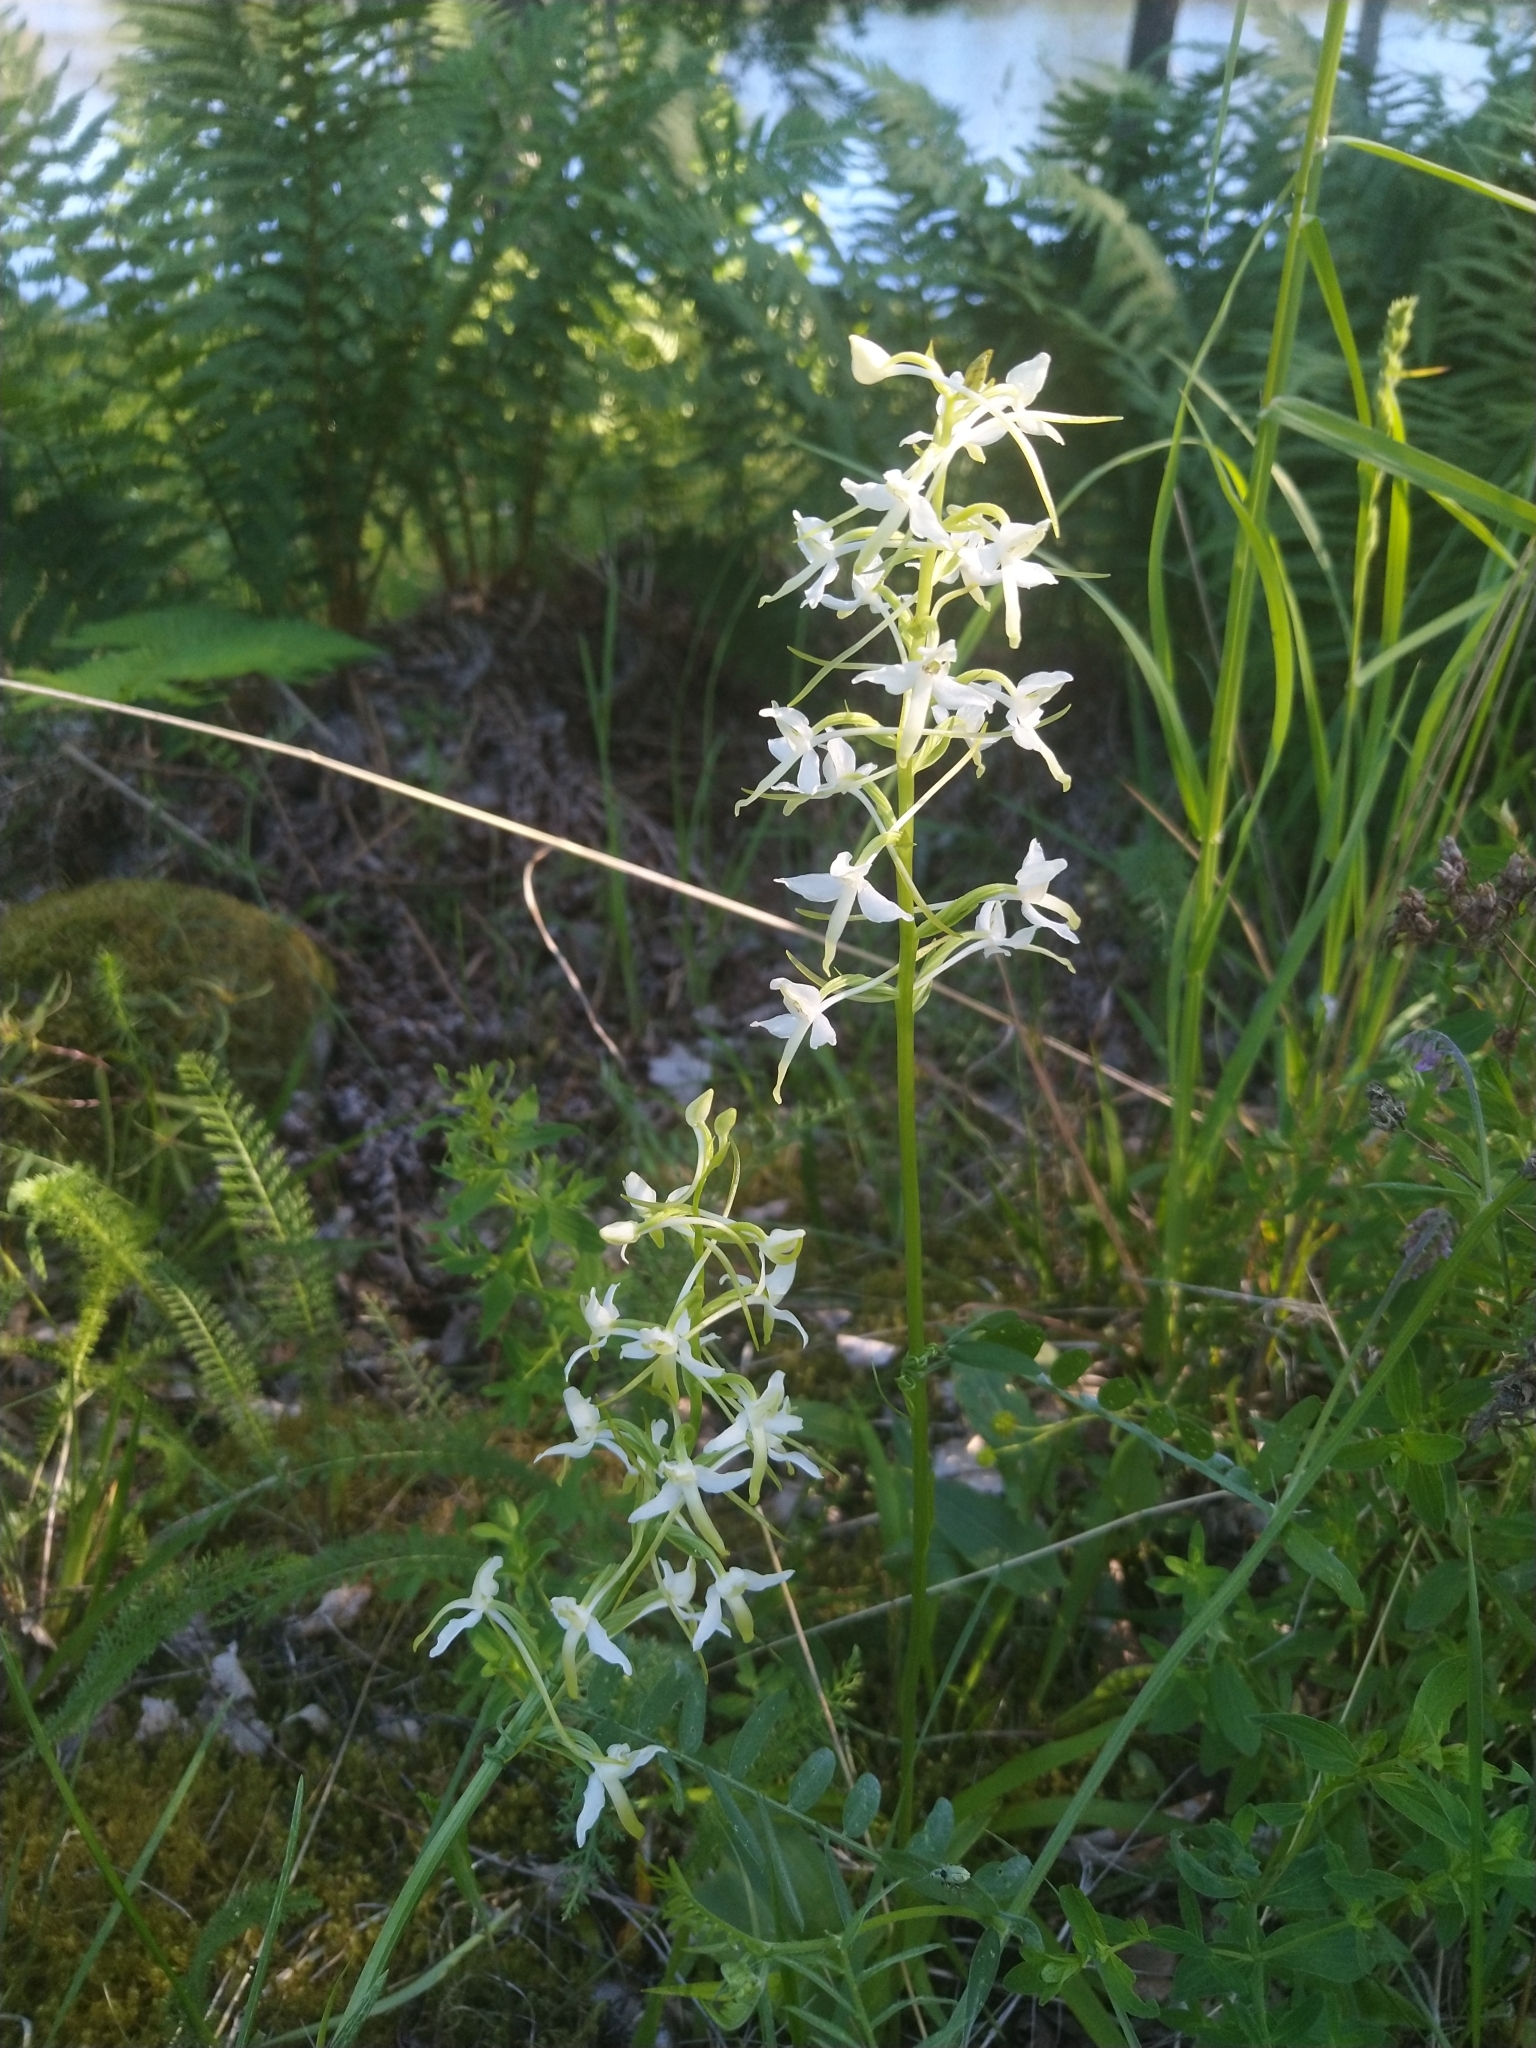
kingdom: Plantae
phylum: Tracheophyta
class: Liliopsida
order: Asparagales
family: Orchidaceae
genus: Platanthera
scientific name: Platanthera bifolia
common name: Lesser butterfly-orchid
